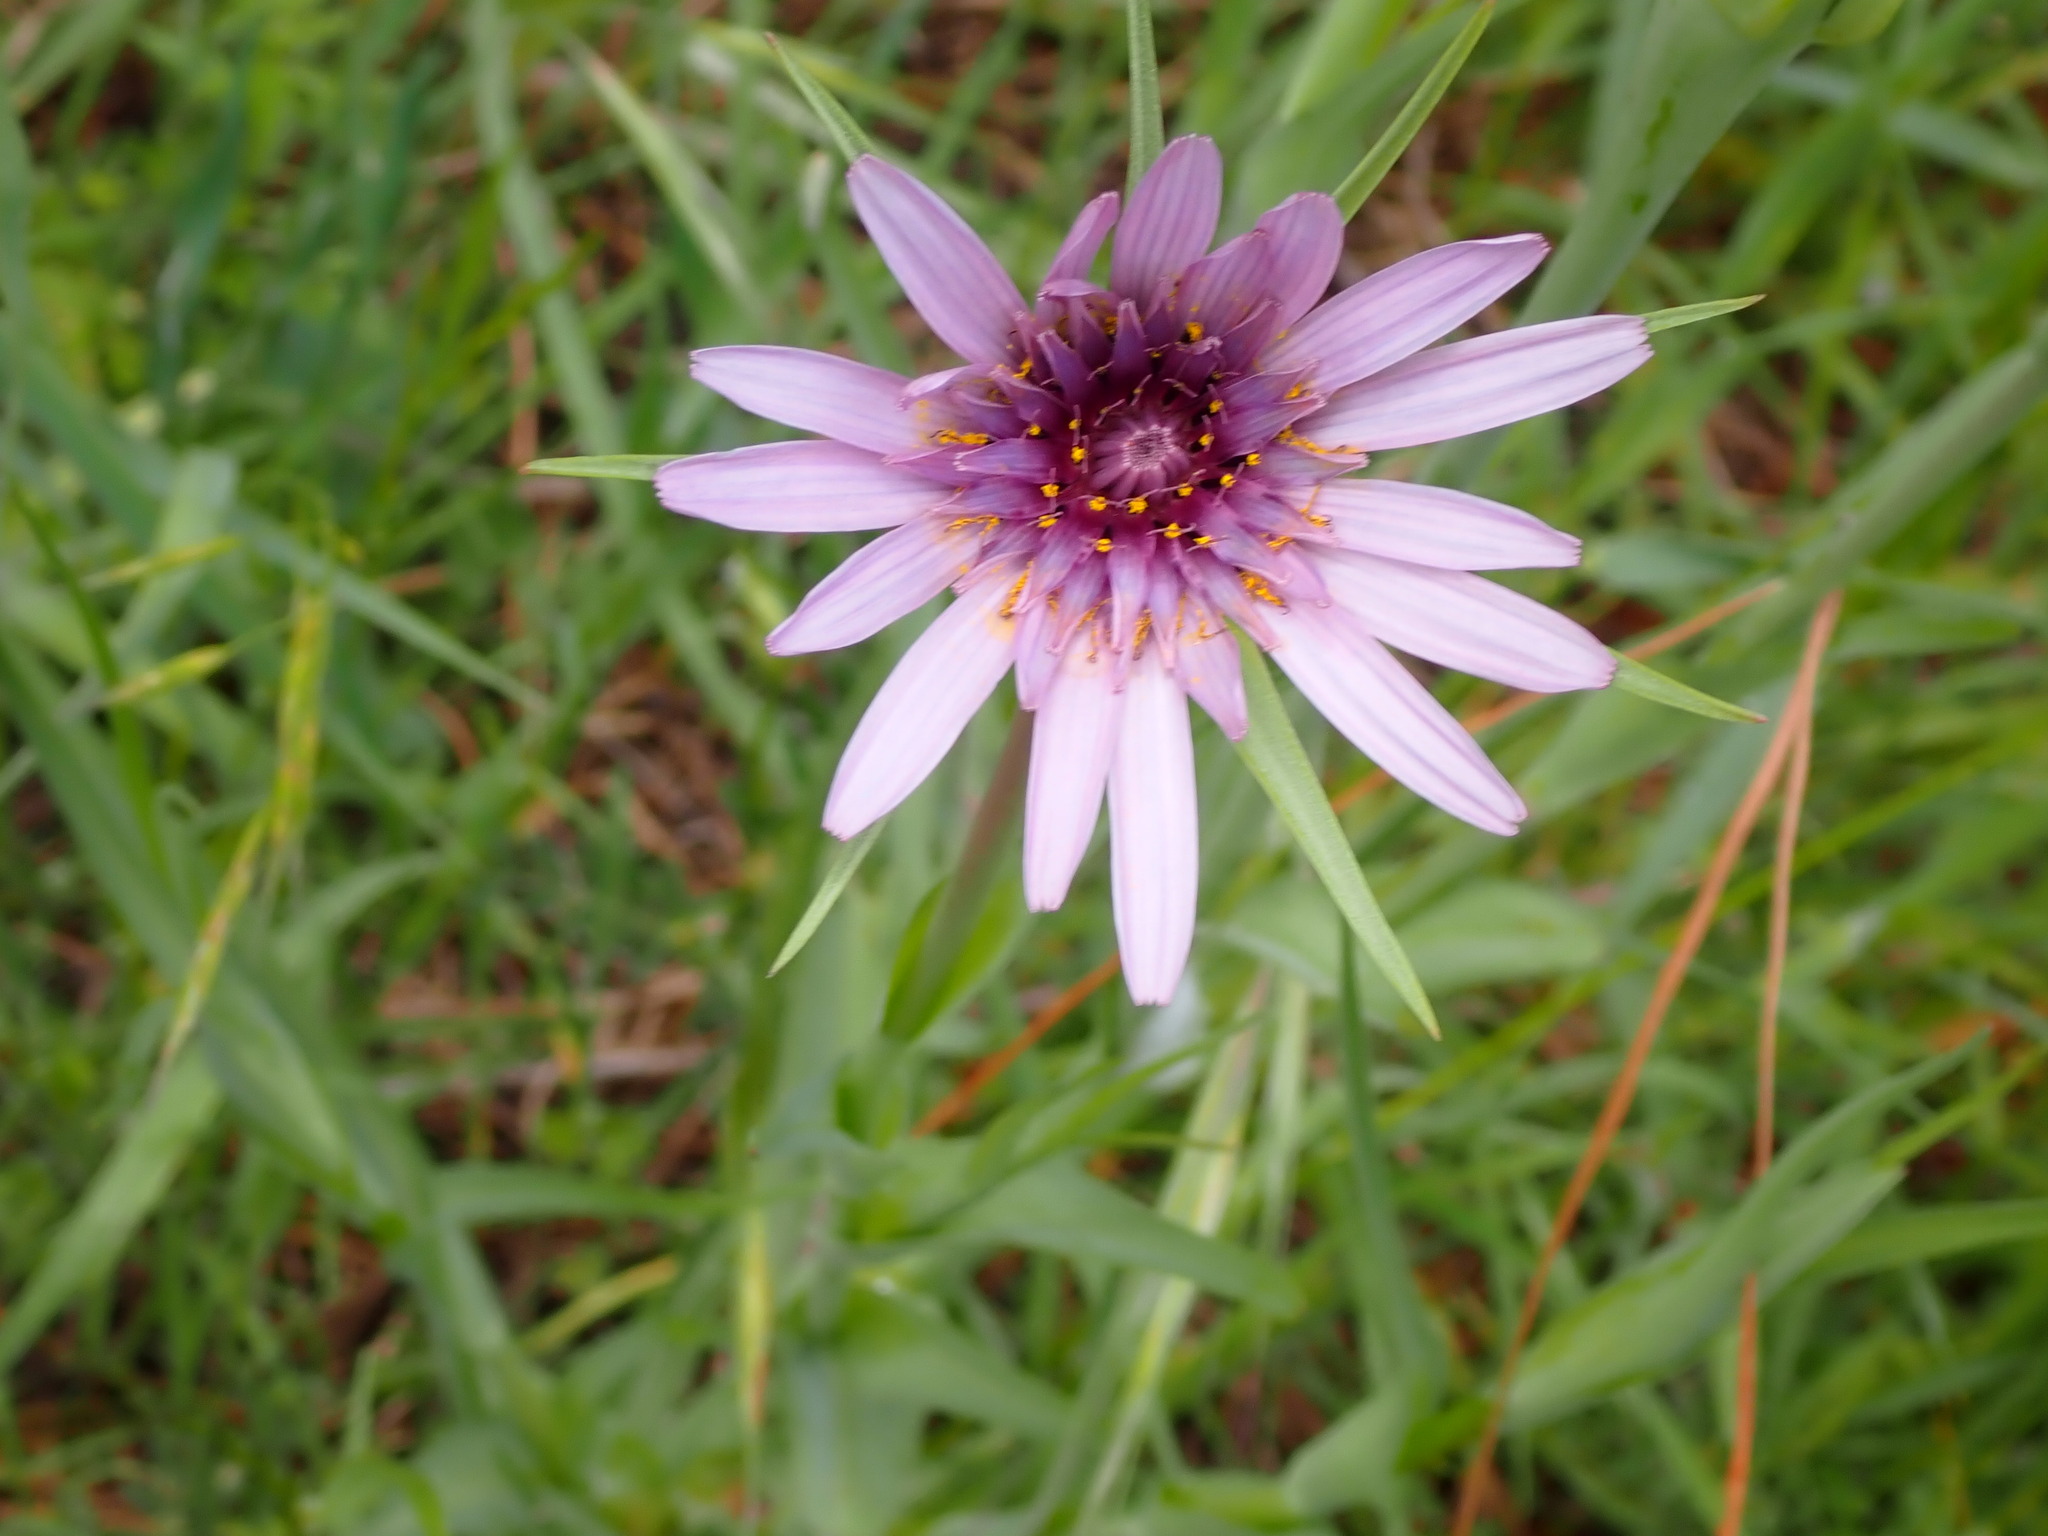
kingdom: Plantae
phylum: Tracheophyta
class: Magnoliopsida
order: Asterales
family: Asteraceae
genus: Tragopogon
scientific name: Tragopogon porrifolius
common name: Salsify
